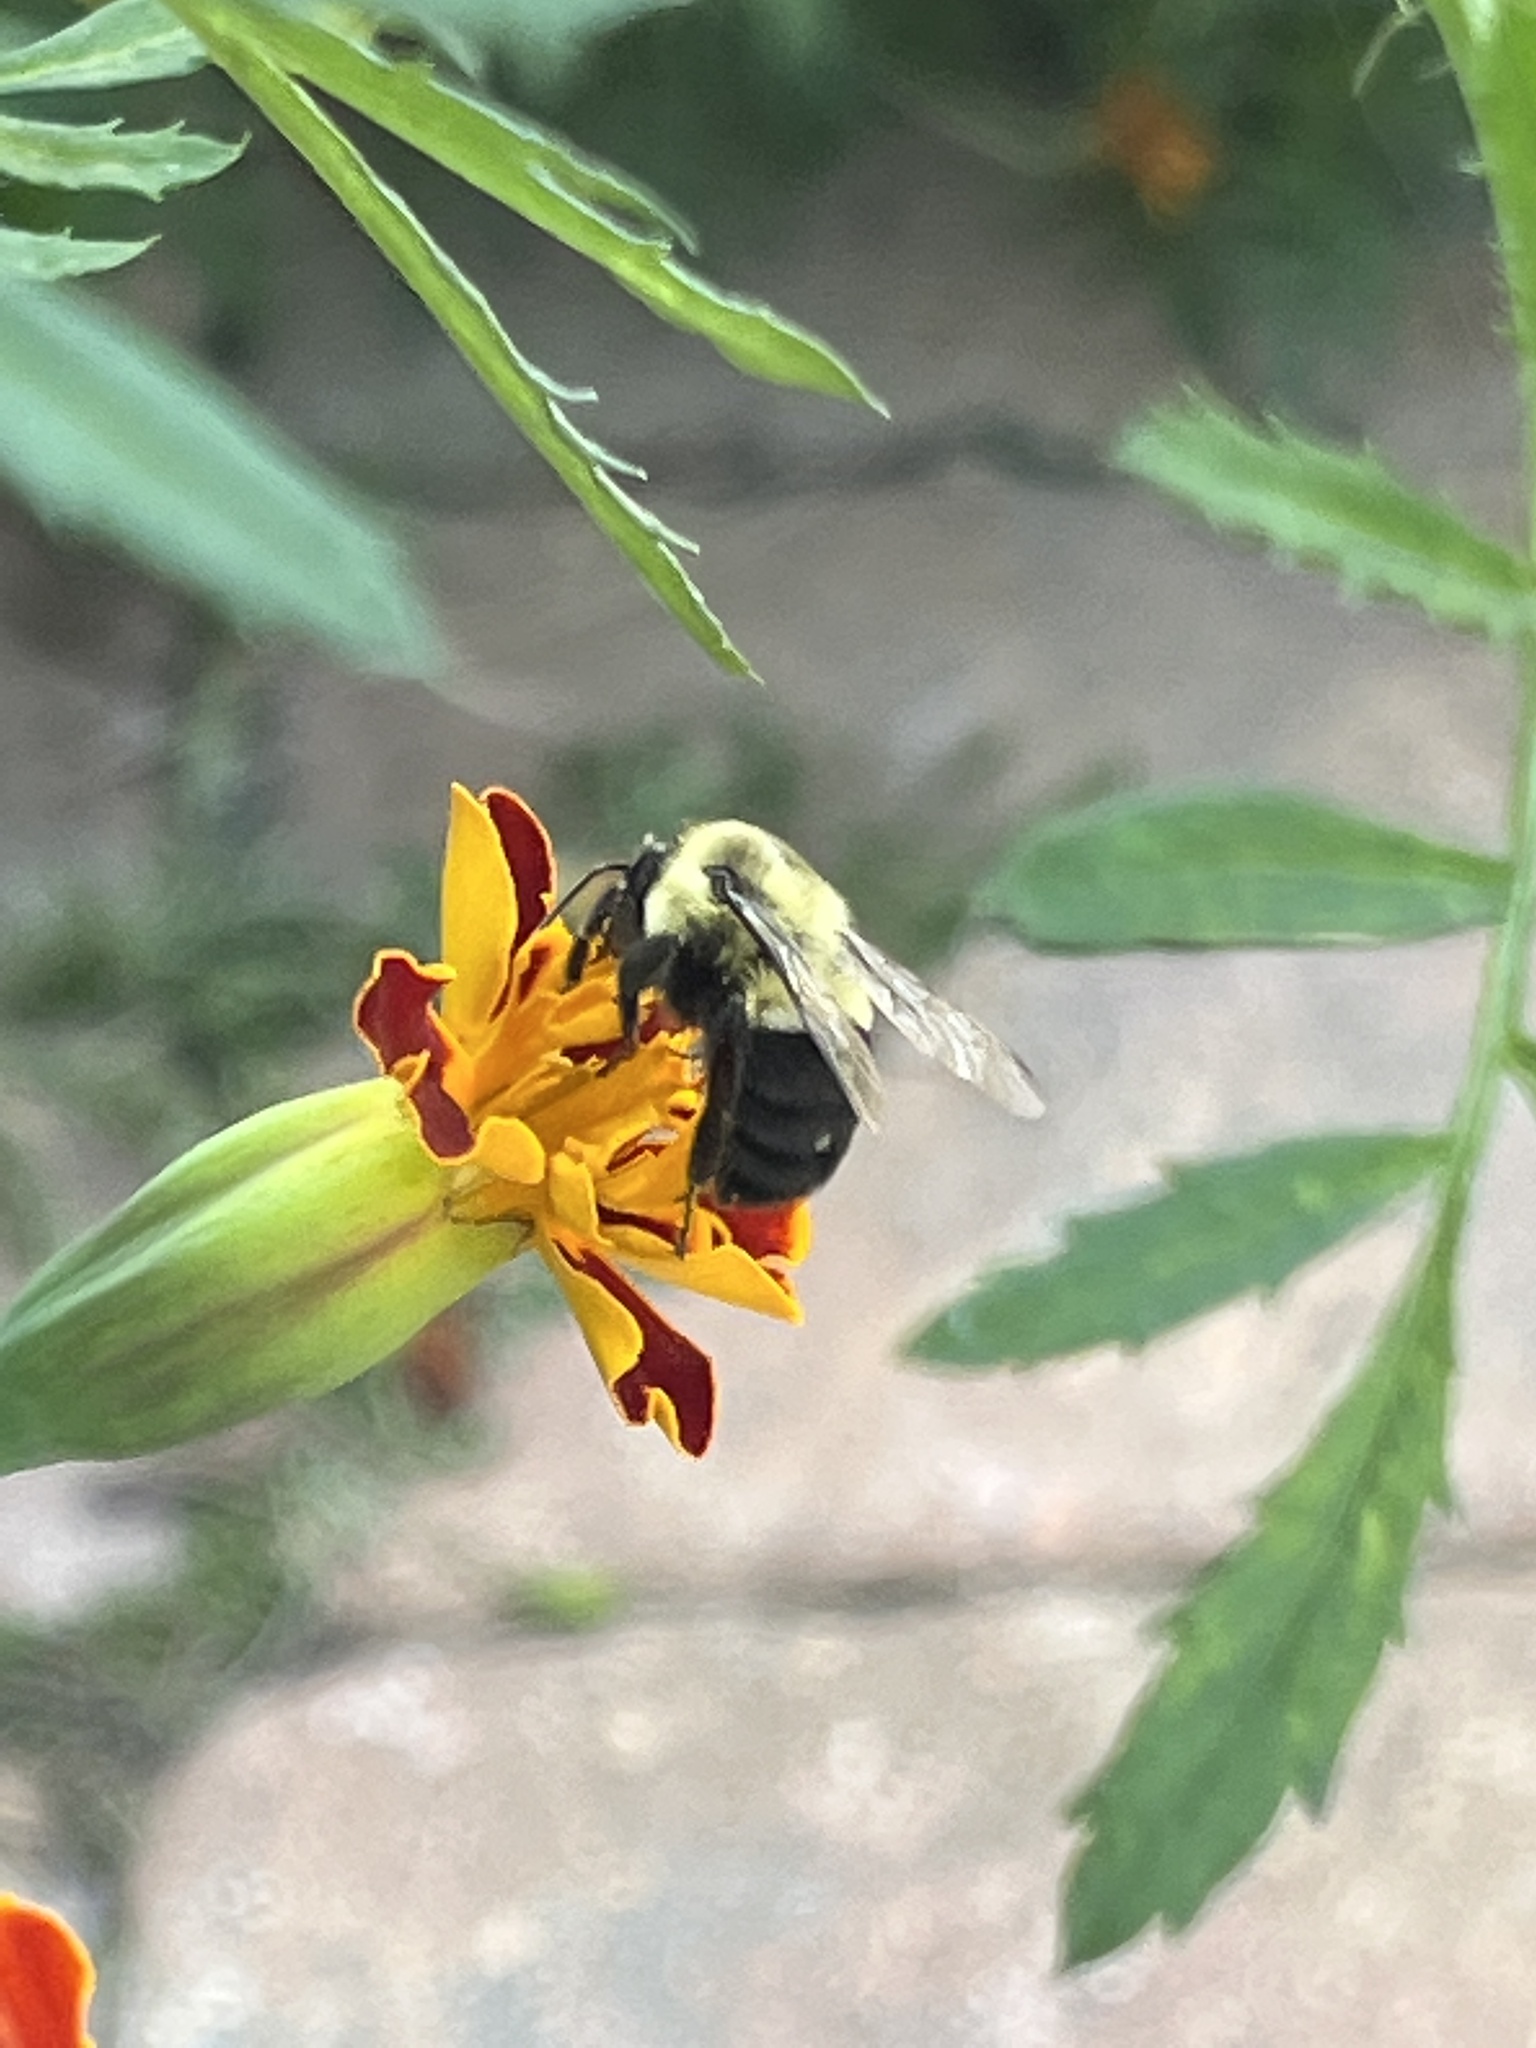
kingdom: Animalia
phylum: Arthropoda
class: Insecta
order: Hymenoptera
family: Apidae
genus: Bombus
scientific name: Bombus impatiens
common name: Common eastern bumble bee
